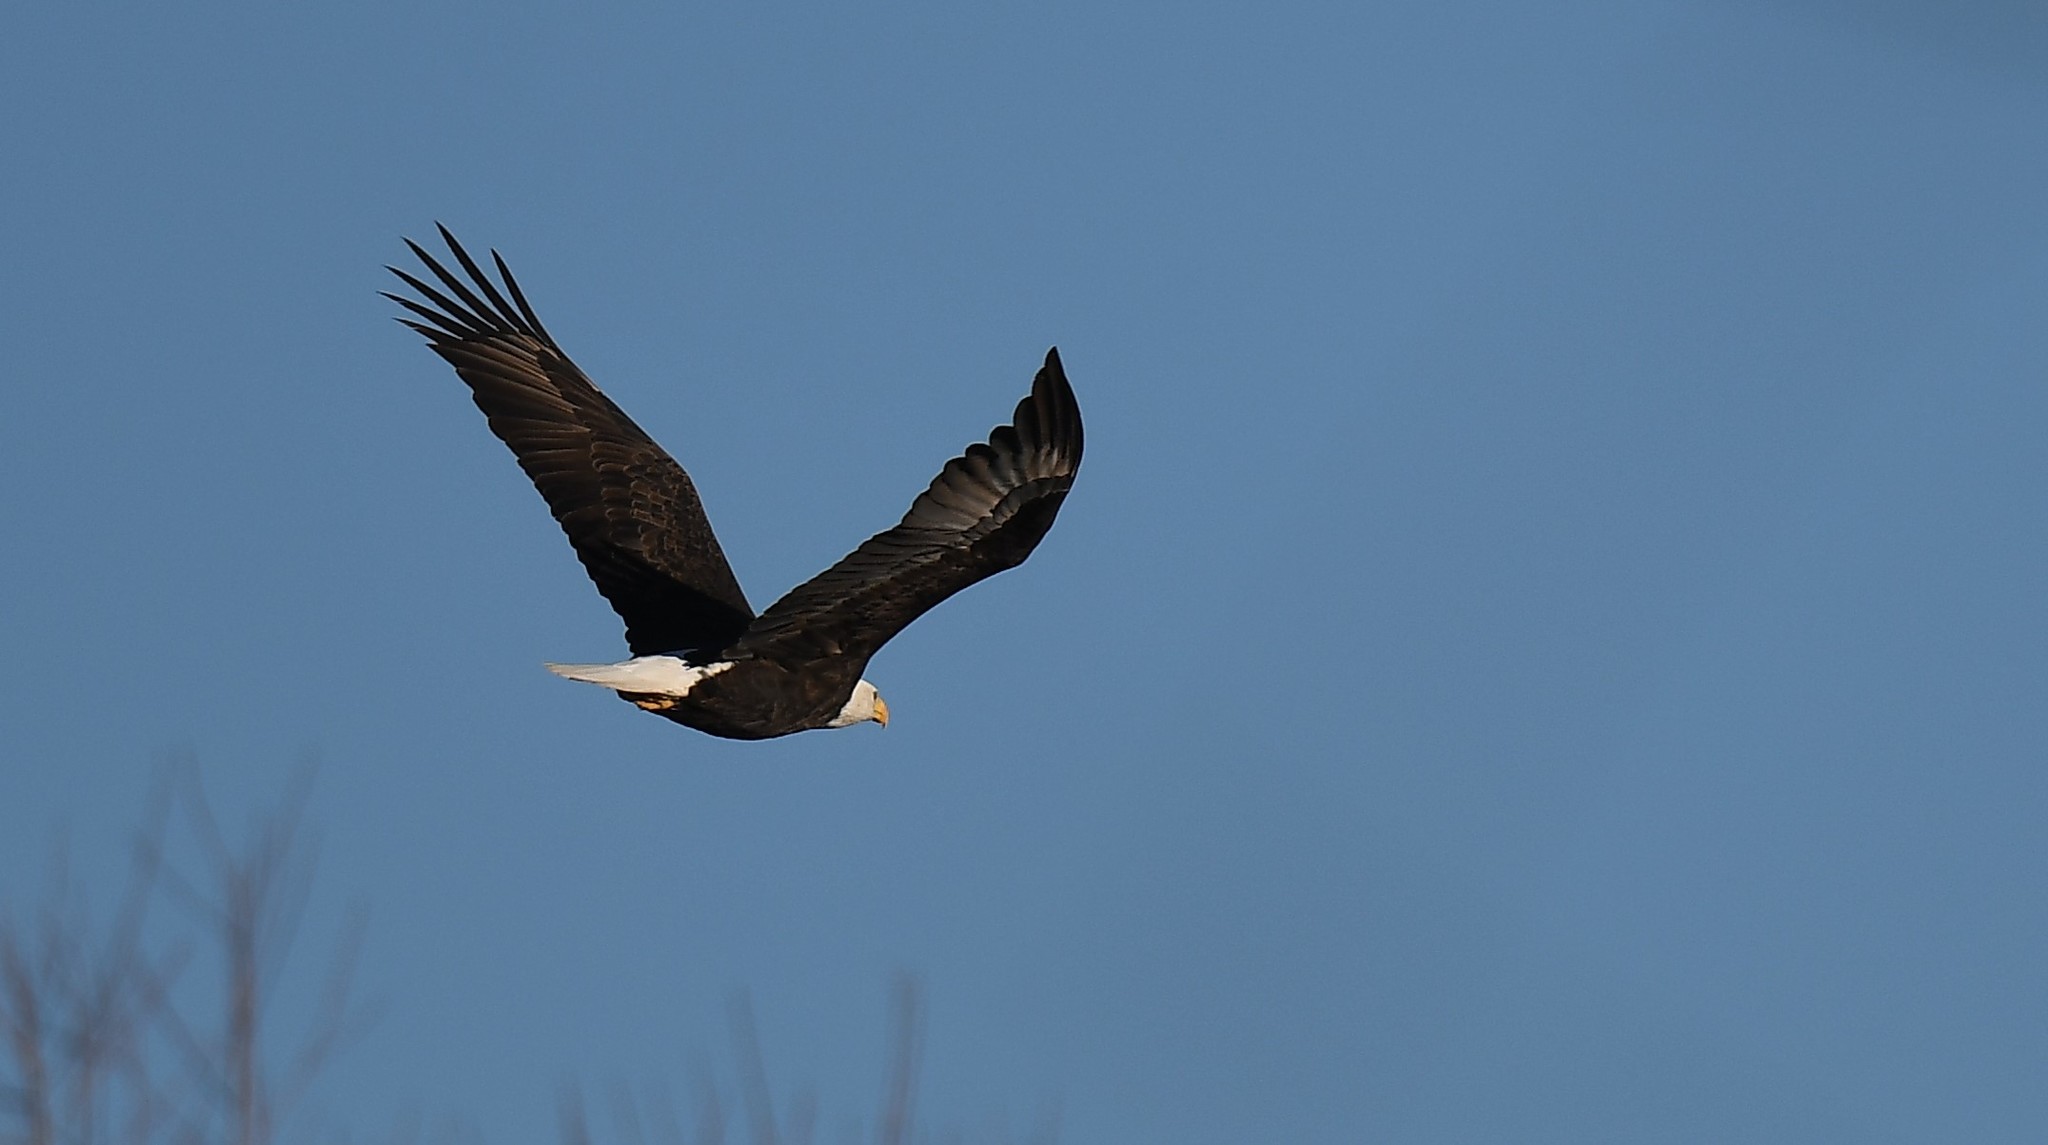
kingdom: Animalia
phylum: Chordata
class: Aves
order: Accipitriformes
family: Accipitridae
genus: Haliaeetus
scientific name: Haliaeetus leucocephalus
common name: Bald eagle
